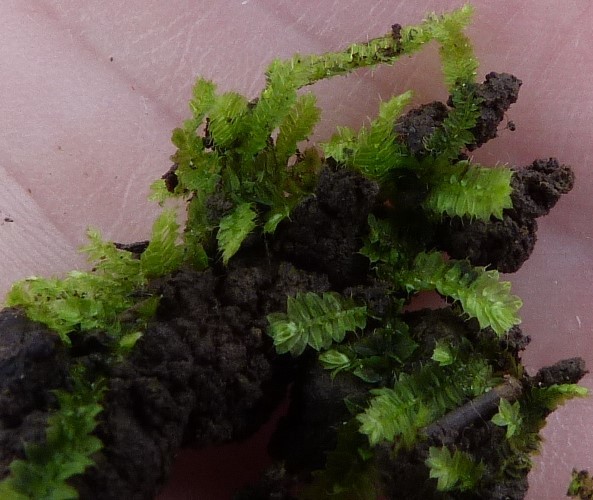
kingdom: Plantae
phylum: Bryophyta
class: Bryopsida
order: Hypnodendrales
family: Racopilaceae
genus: Racopilum
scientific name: Racopilum cuspidigerum
